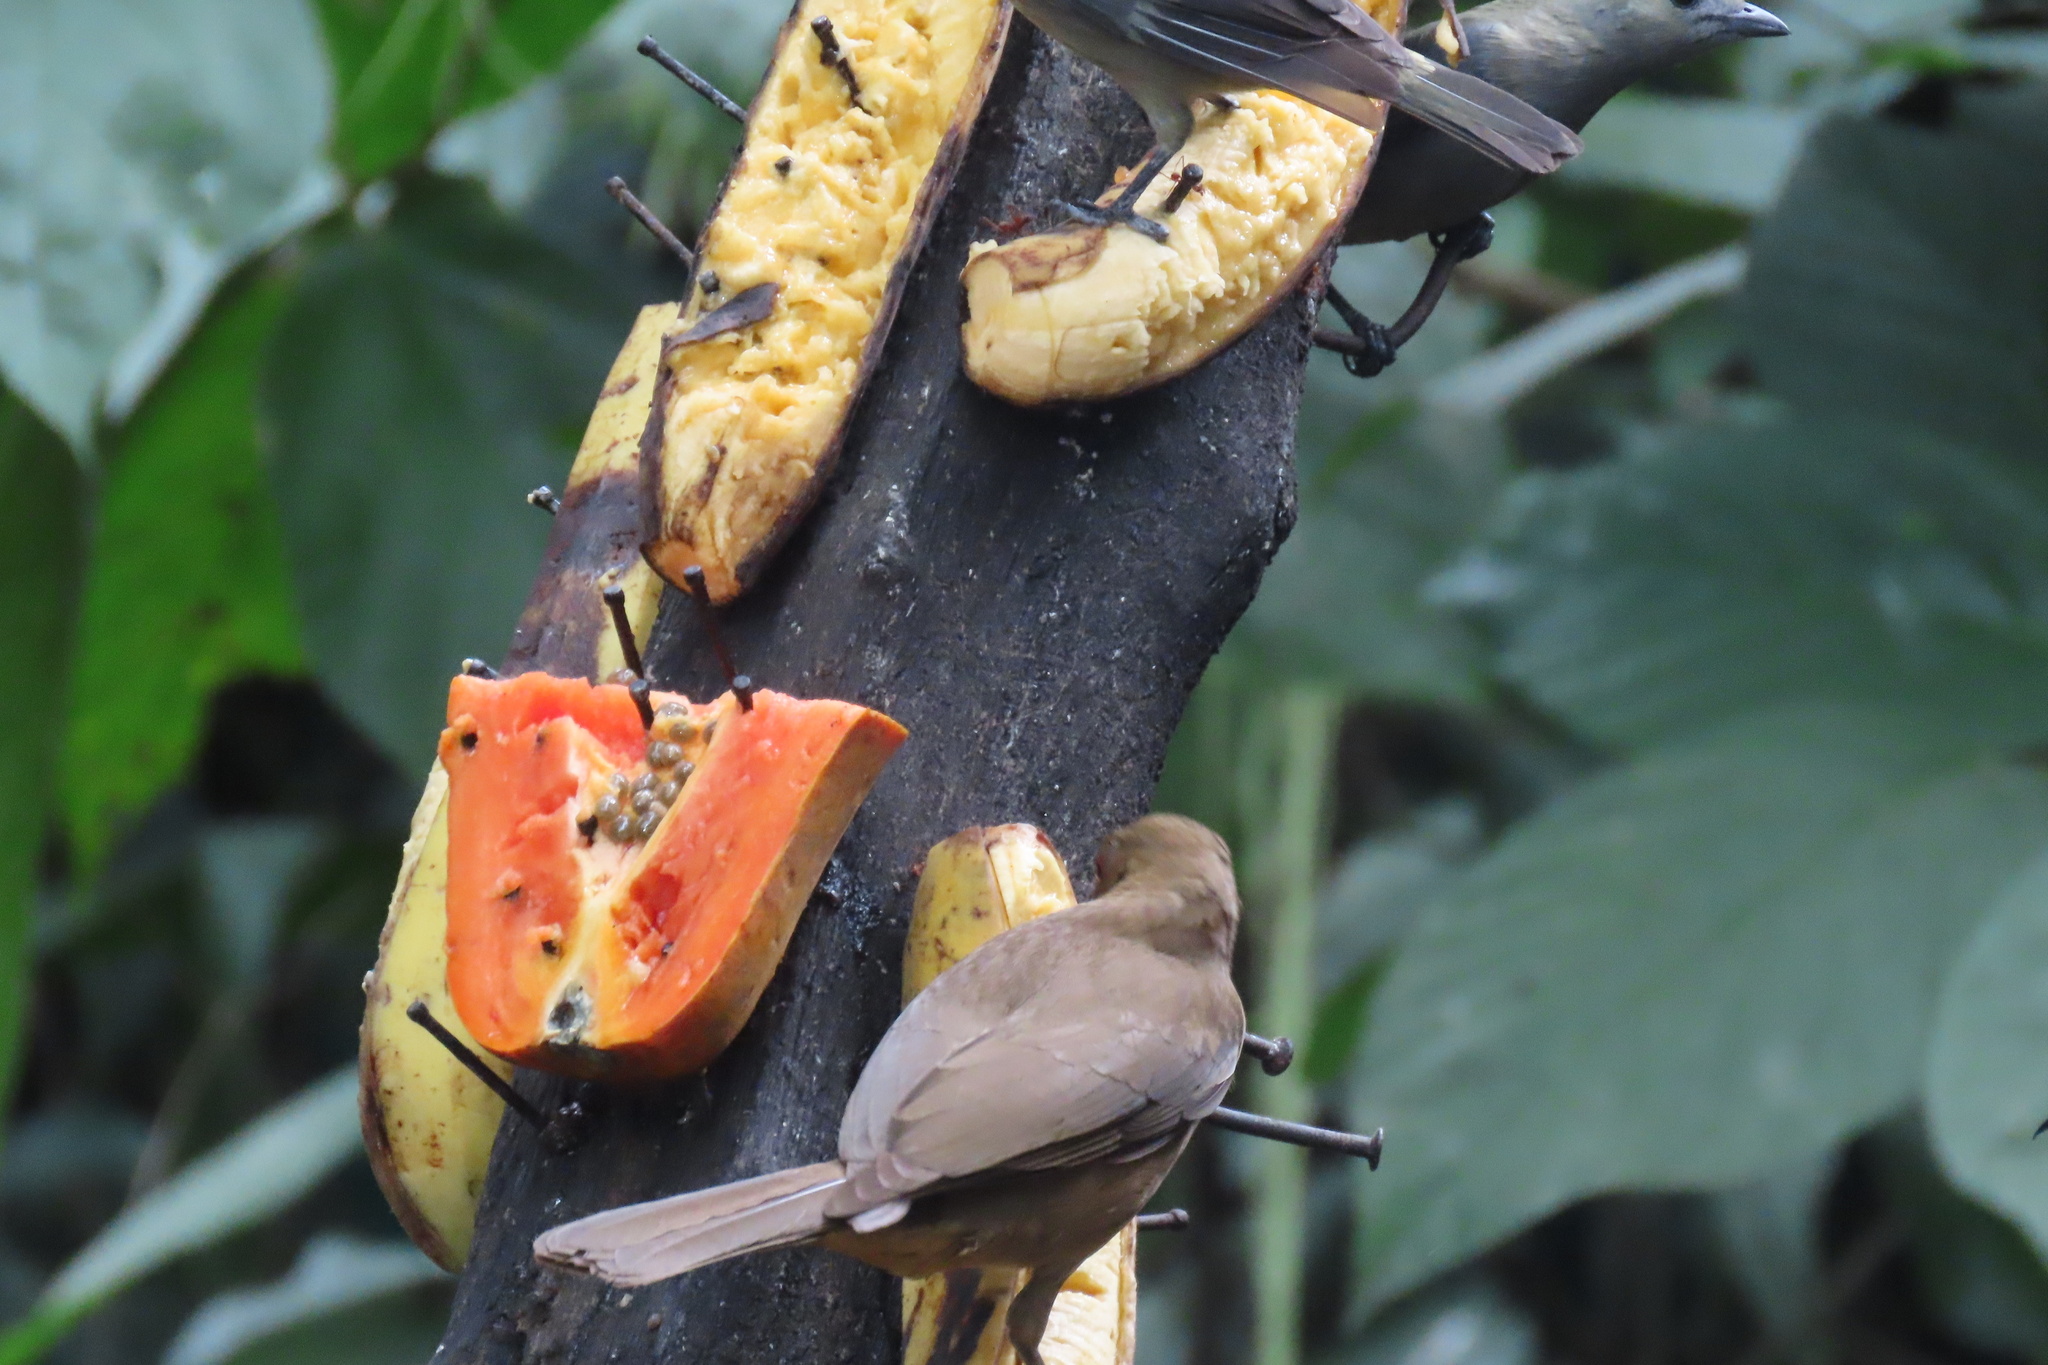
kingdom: Animalia
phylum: Chordata
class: Aves
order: Passeriformes
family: Turdidae
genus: Turdus
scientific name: Turdus grayi
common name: Clay-colored thrush
